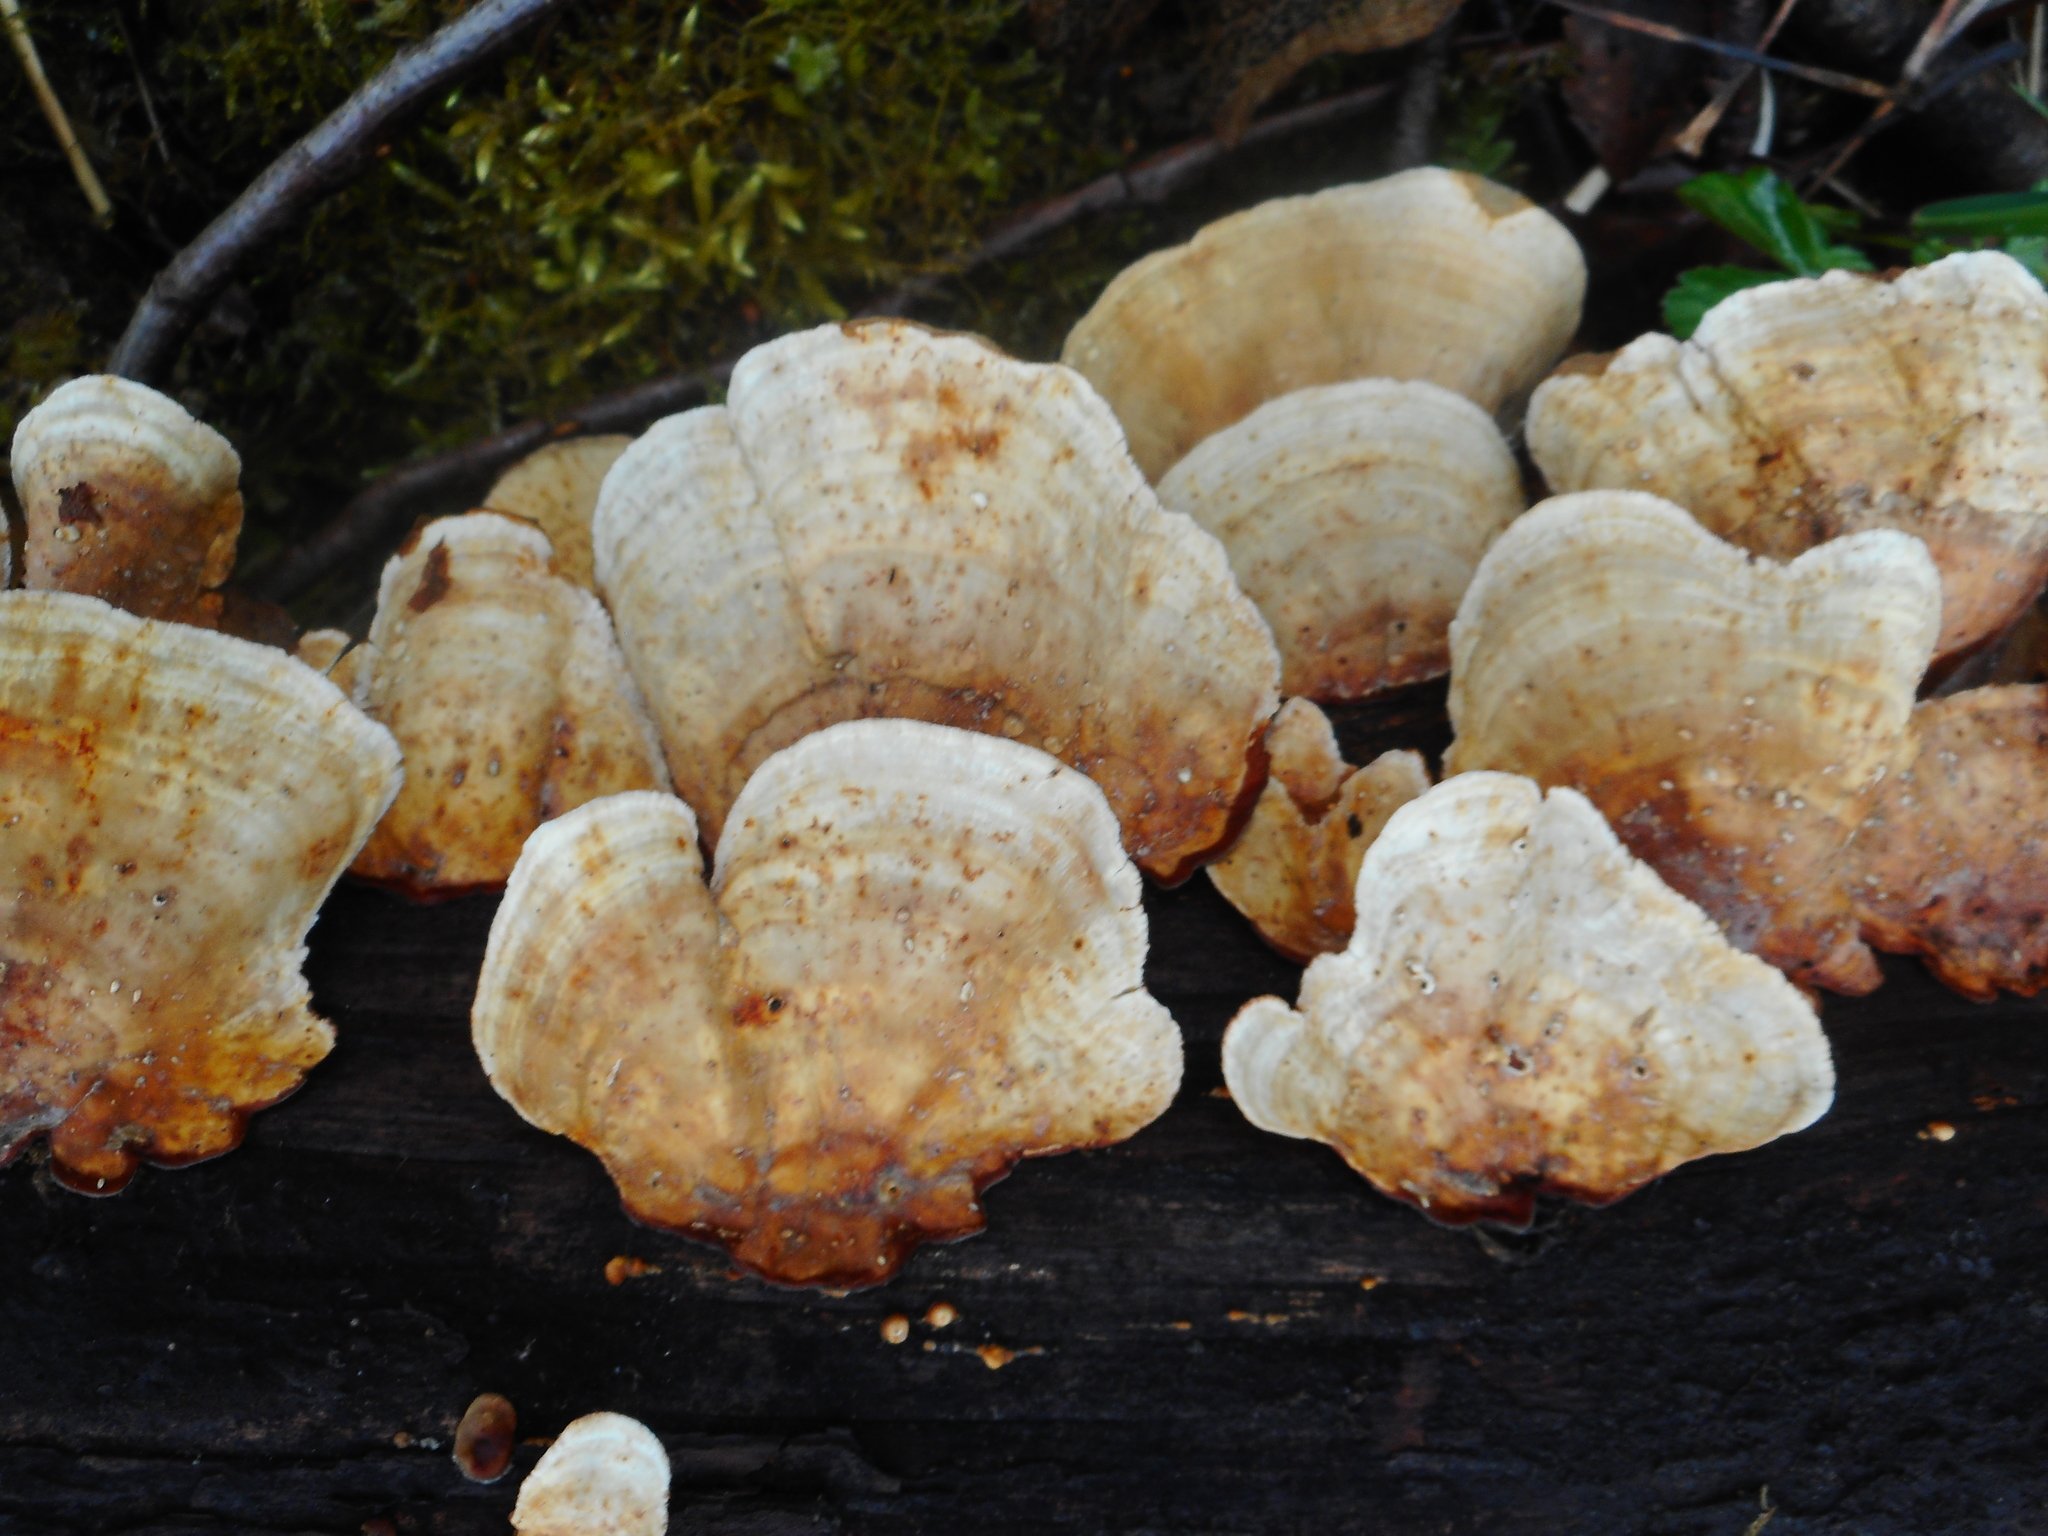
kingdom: Fungi
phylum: Basidiomycota
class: Agaricomycetes
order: Russulales
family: Stereaceae
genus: Stereum
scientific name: Stereum subtomentosum
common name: Yellowing curtain crust
